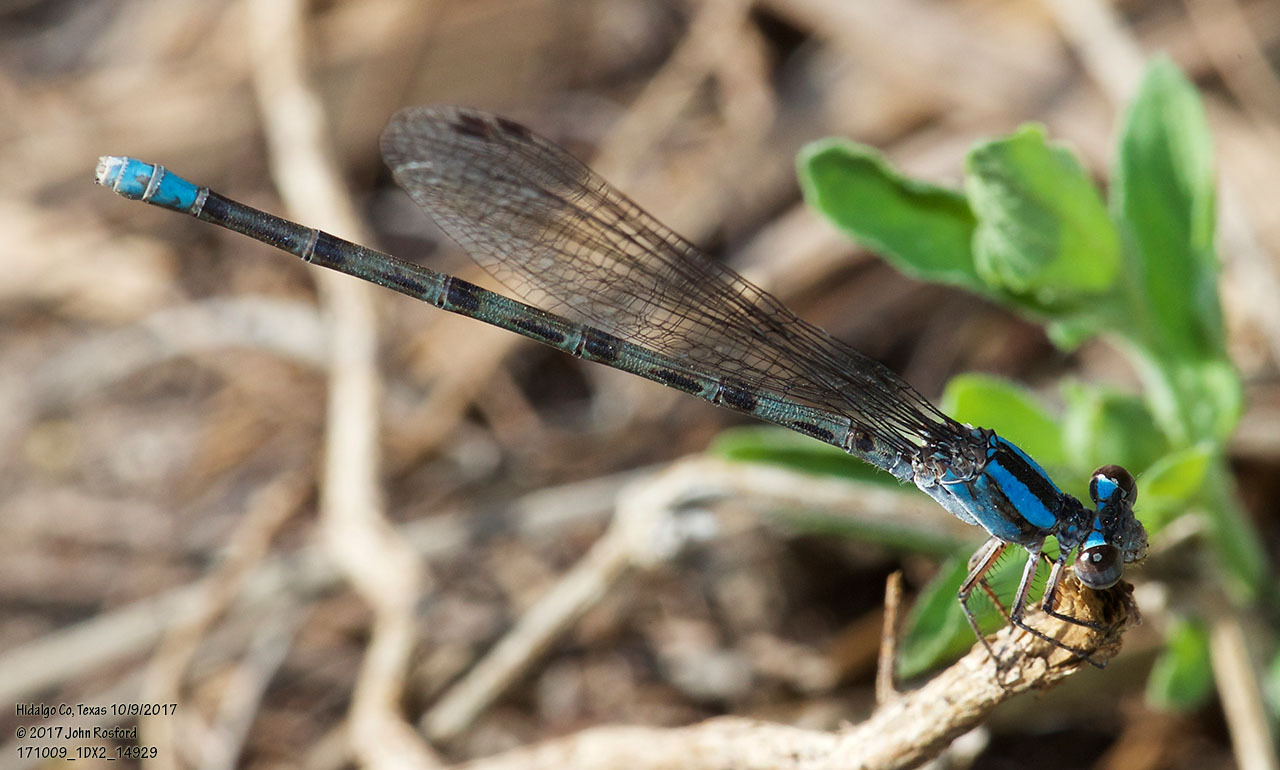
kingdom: Animalia
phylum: Arthropoda
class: Insecta
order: Odonata
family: Coenagrionidae
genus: Argia
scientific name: Argia immunda
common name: Kiowa dancer
